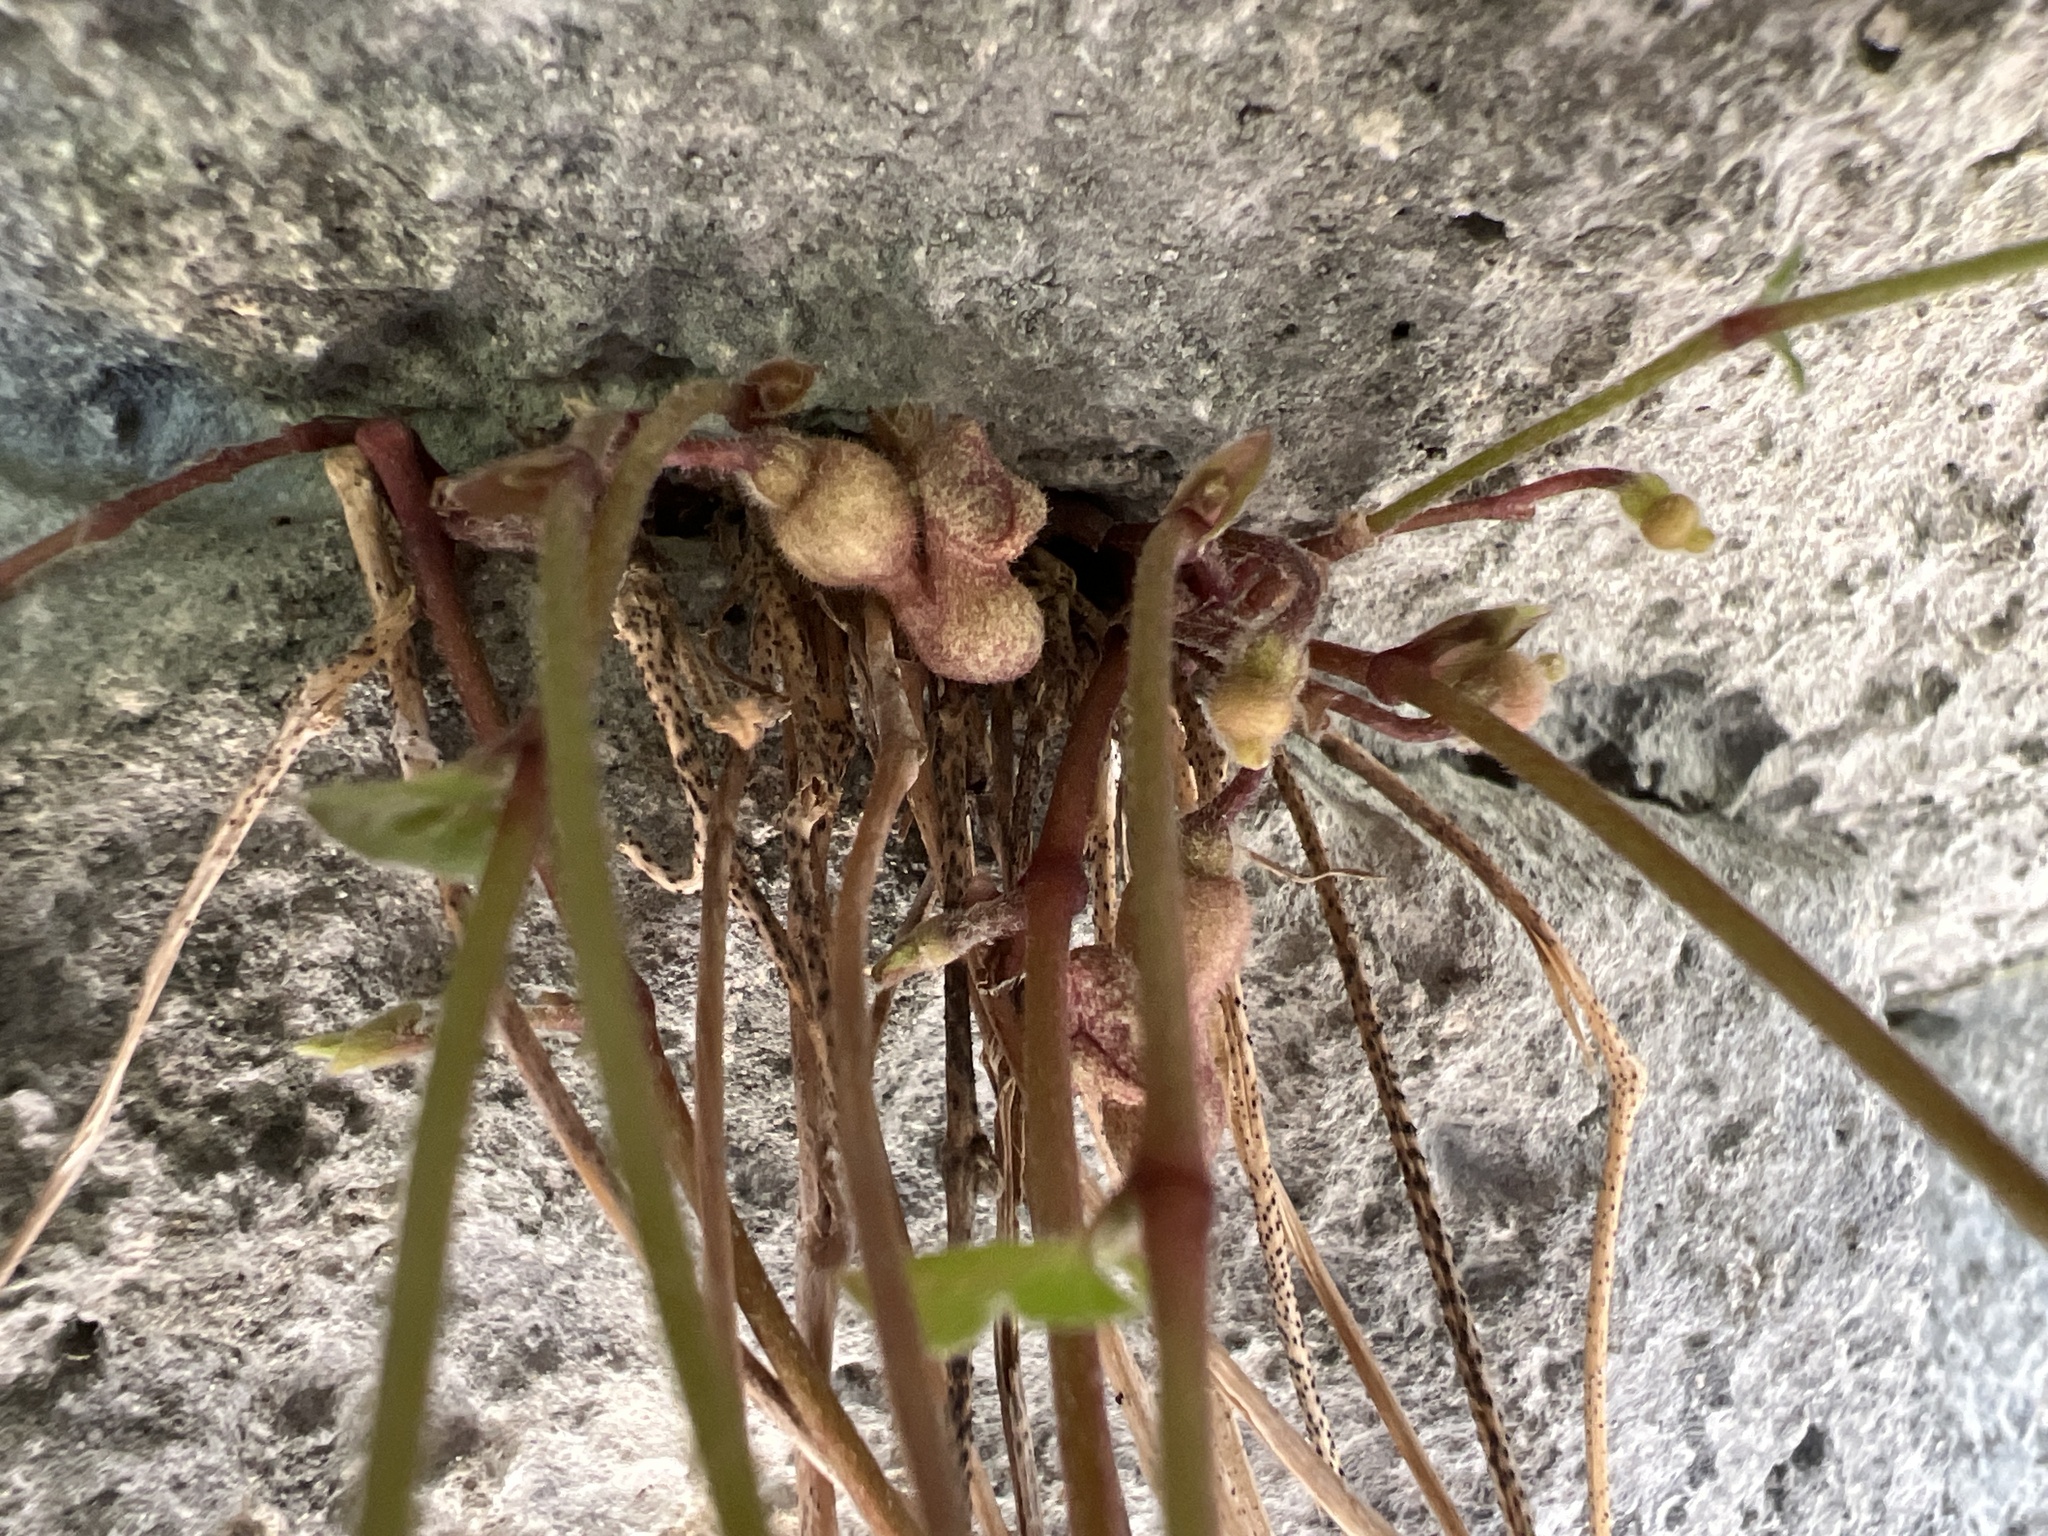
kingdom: Plantae
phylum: Tracheophyta
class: Magnoliopsida
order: Piperales
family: Aristolochiaceae
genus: Endodeca
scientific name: Endodeca serpentaria
